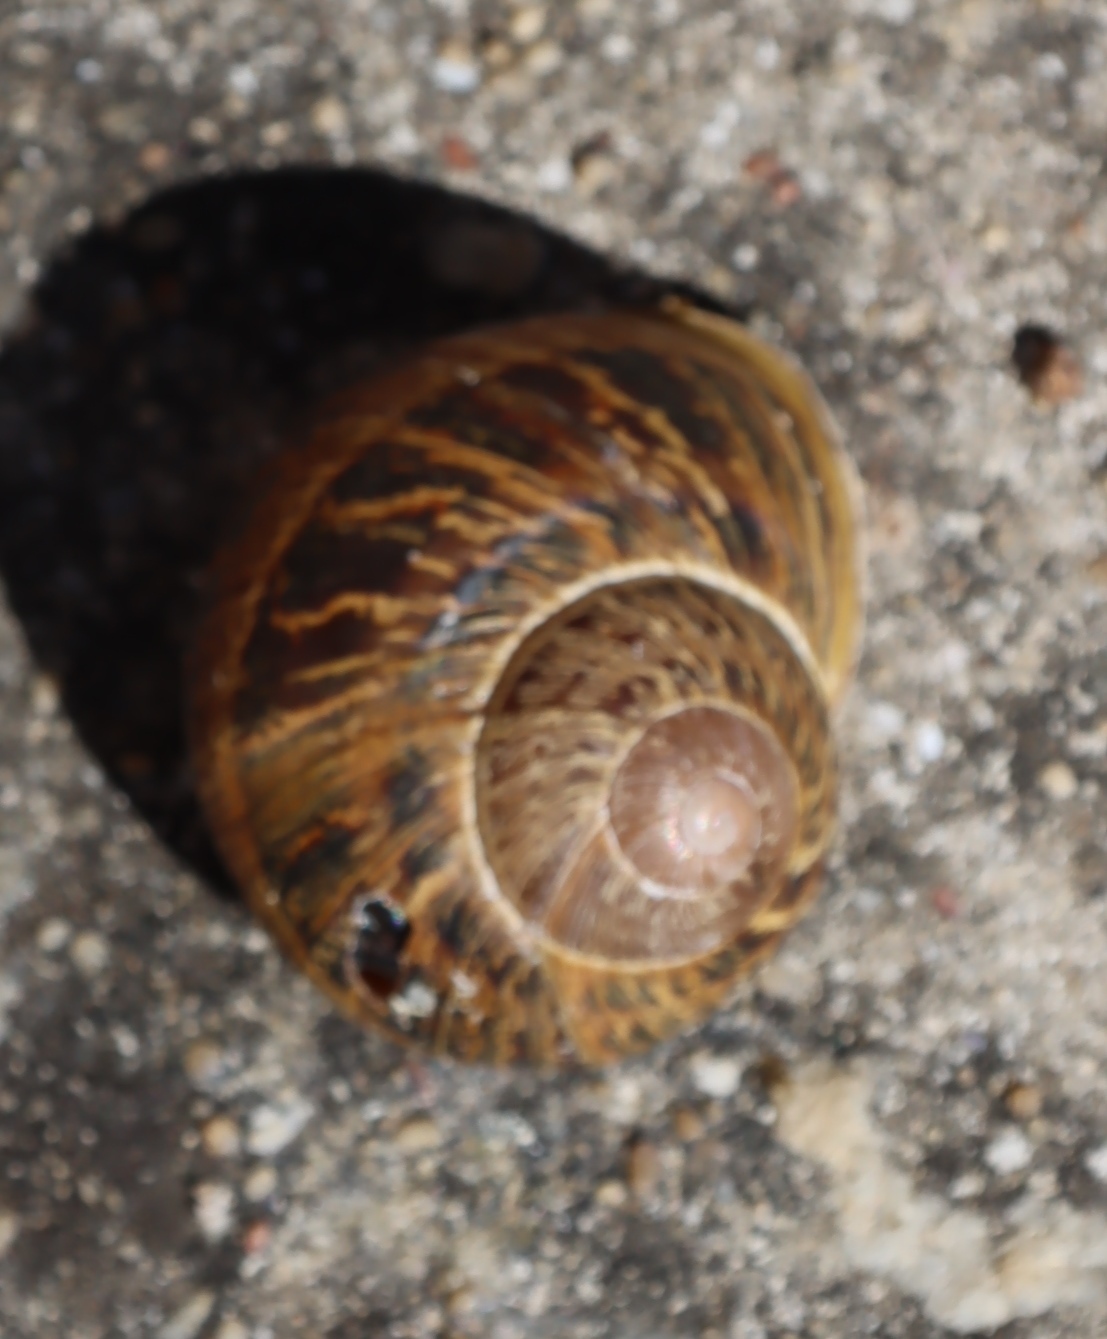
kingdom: Animalia
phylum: Mollusca
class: Gastropoda
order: Stylommatophora
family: Helicidae
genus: Cornu
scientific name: Cornu aspersum
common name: Brown garden snail
